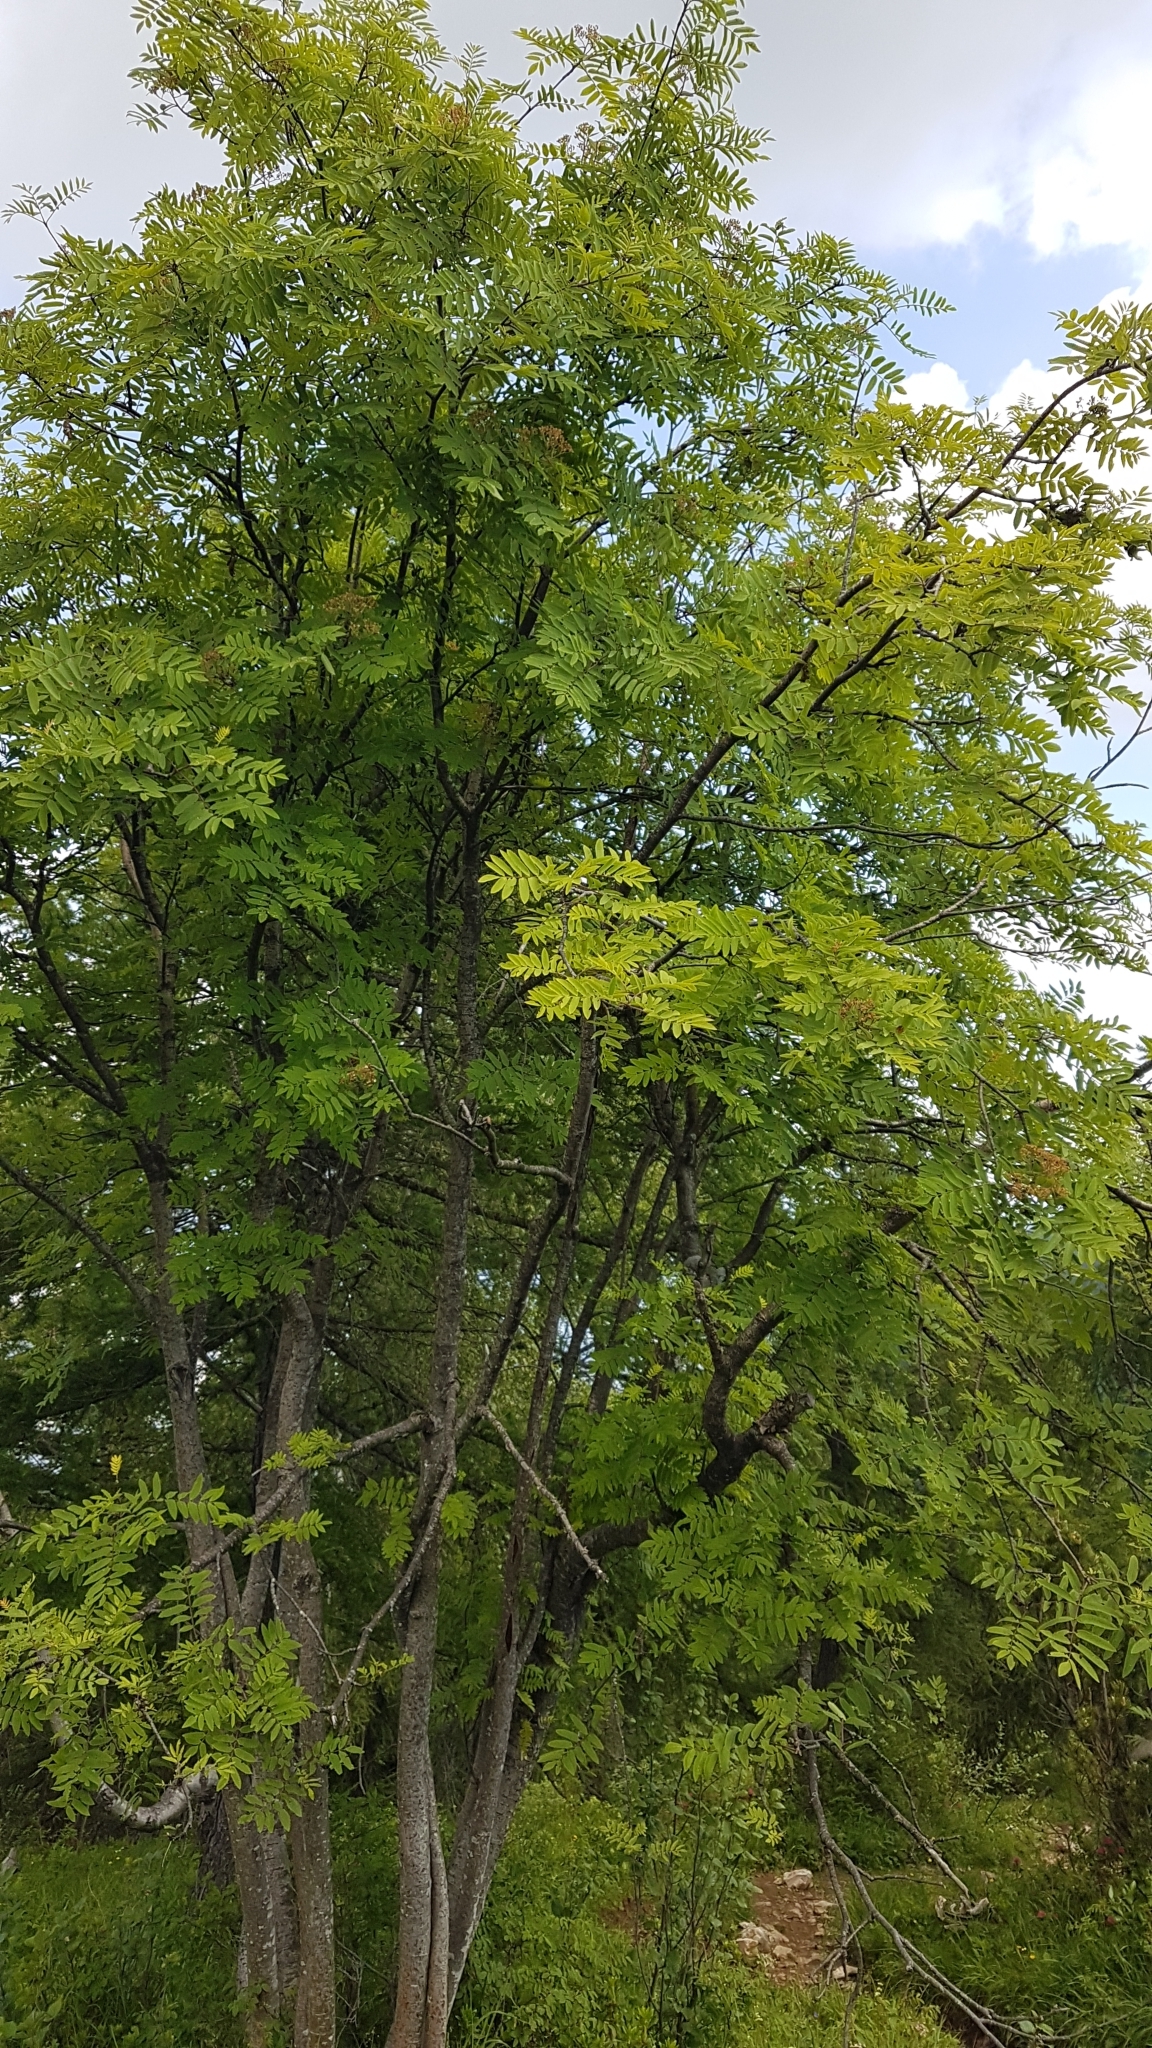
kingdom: Plantae
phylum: Tracheophyta
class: Magnoliopsida
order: Rosales
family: Rosaceae
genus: Sorbus
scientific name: Sorbus aucuparia
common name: Rowan
